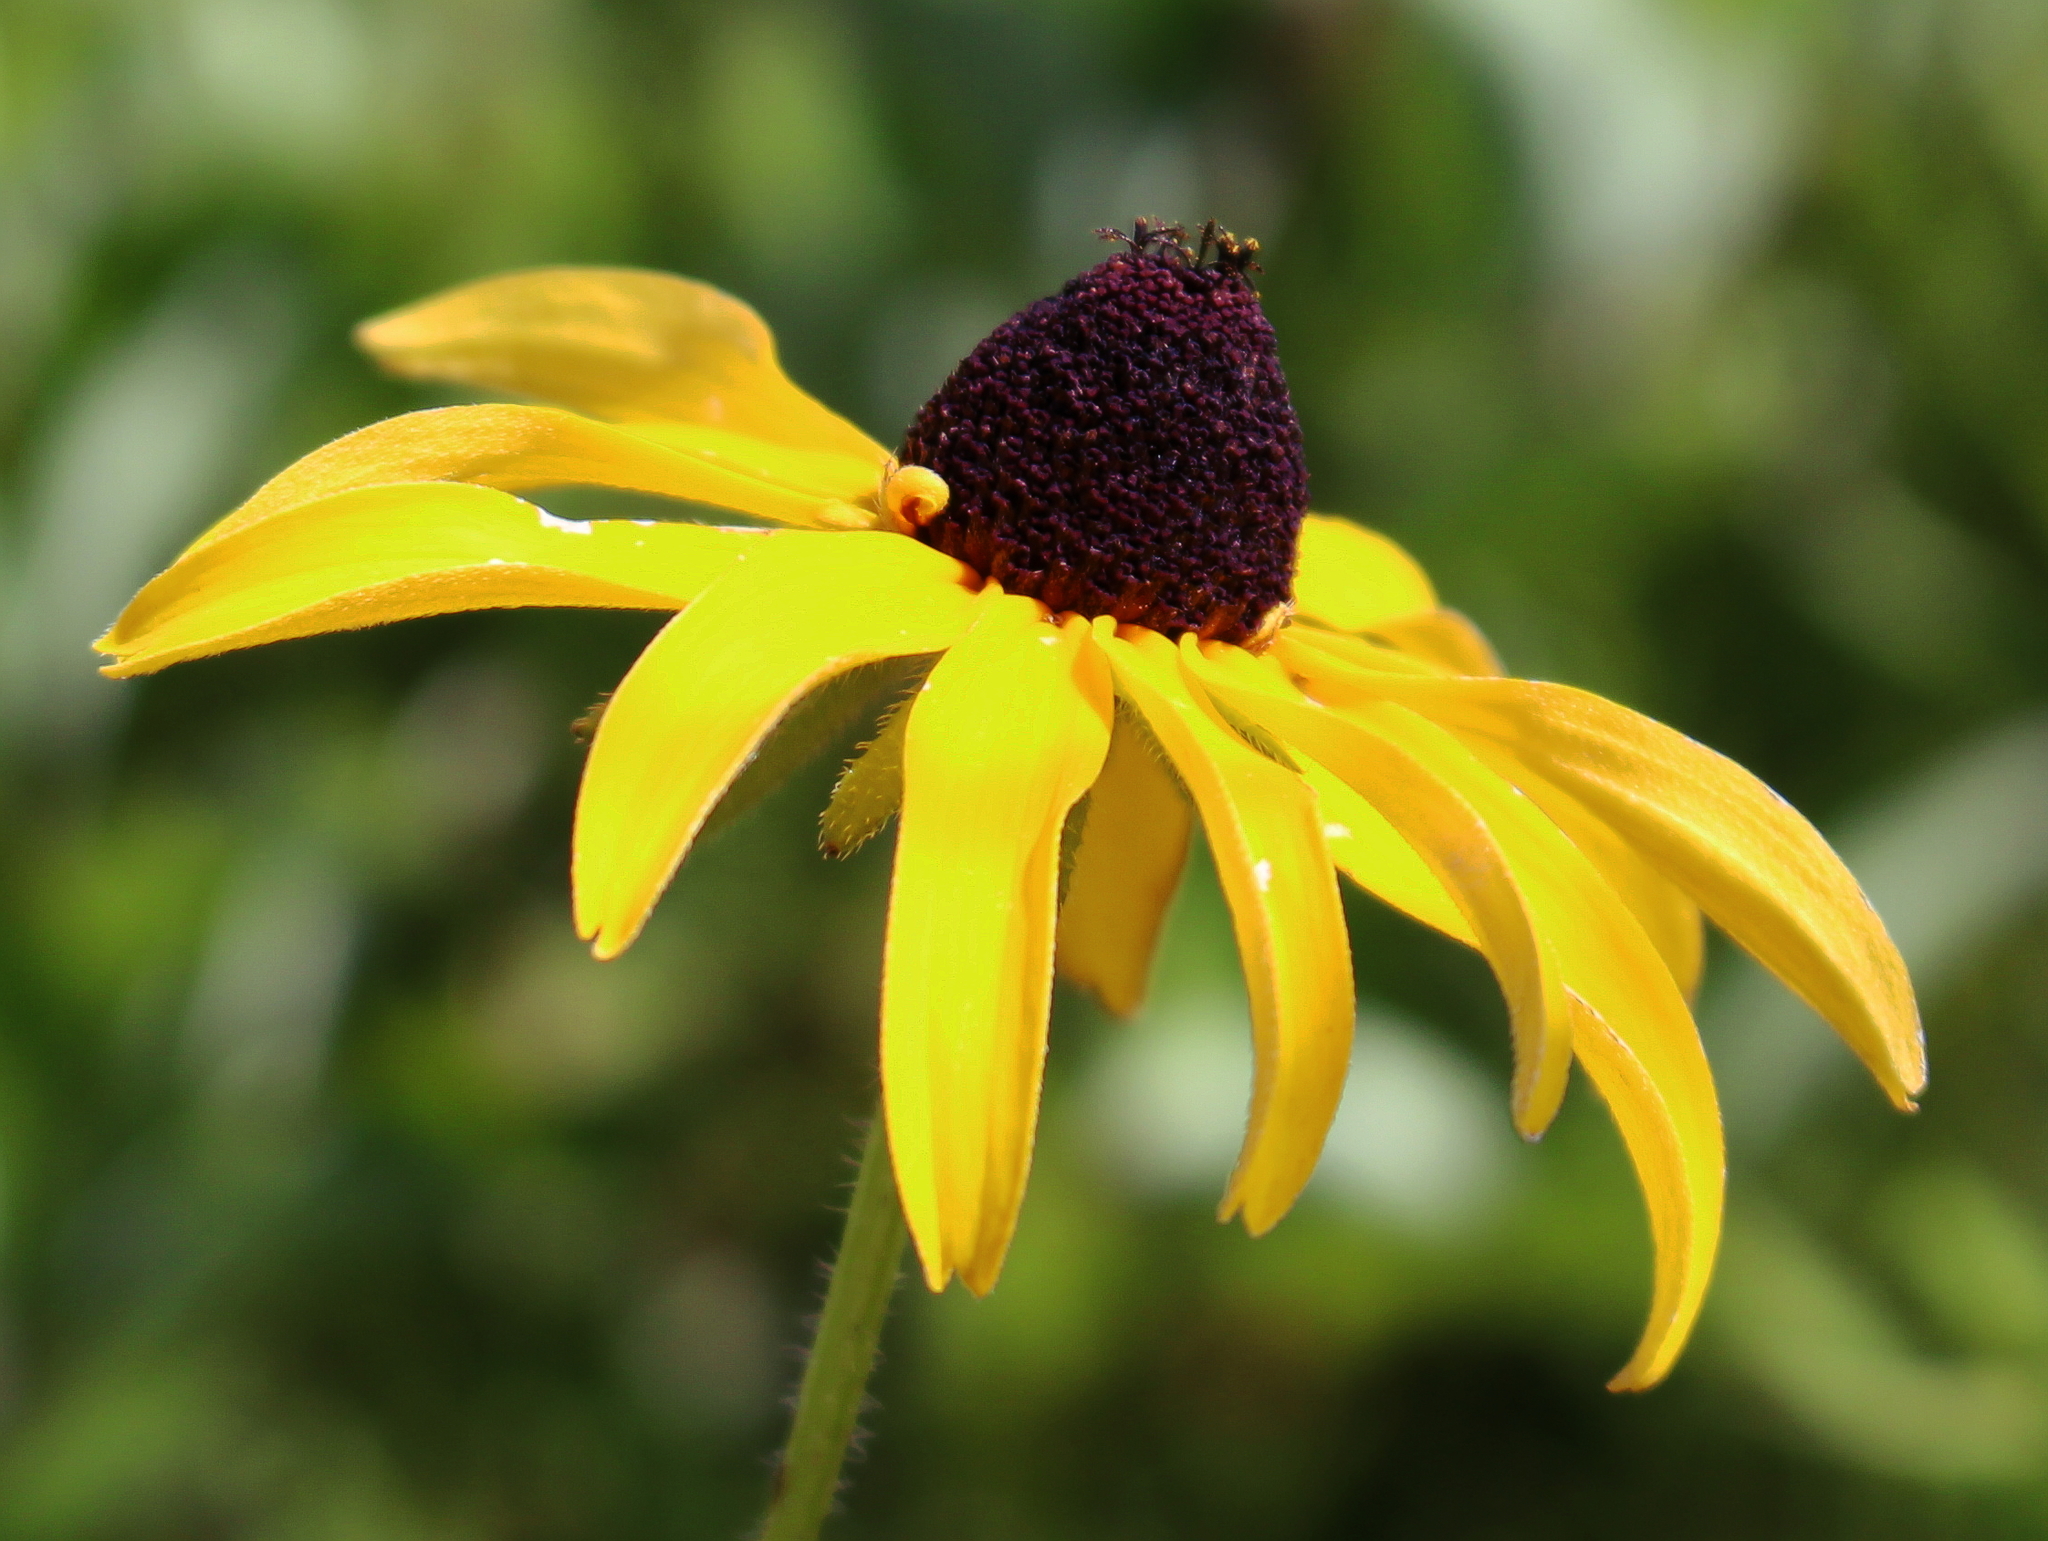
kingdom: Plantae
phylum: Tracheophyta
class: Magnoliopsida
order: Asterales
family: Asteraceae
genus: Rudbeckia
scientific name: Rudbeckia hirta
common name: Black-eyed-susan
